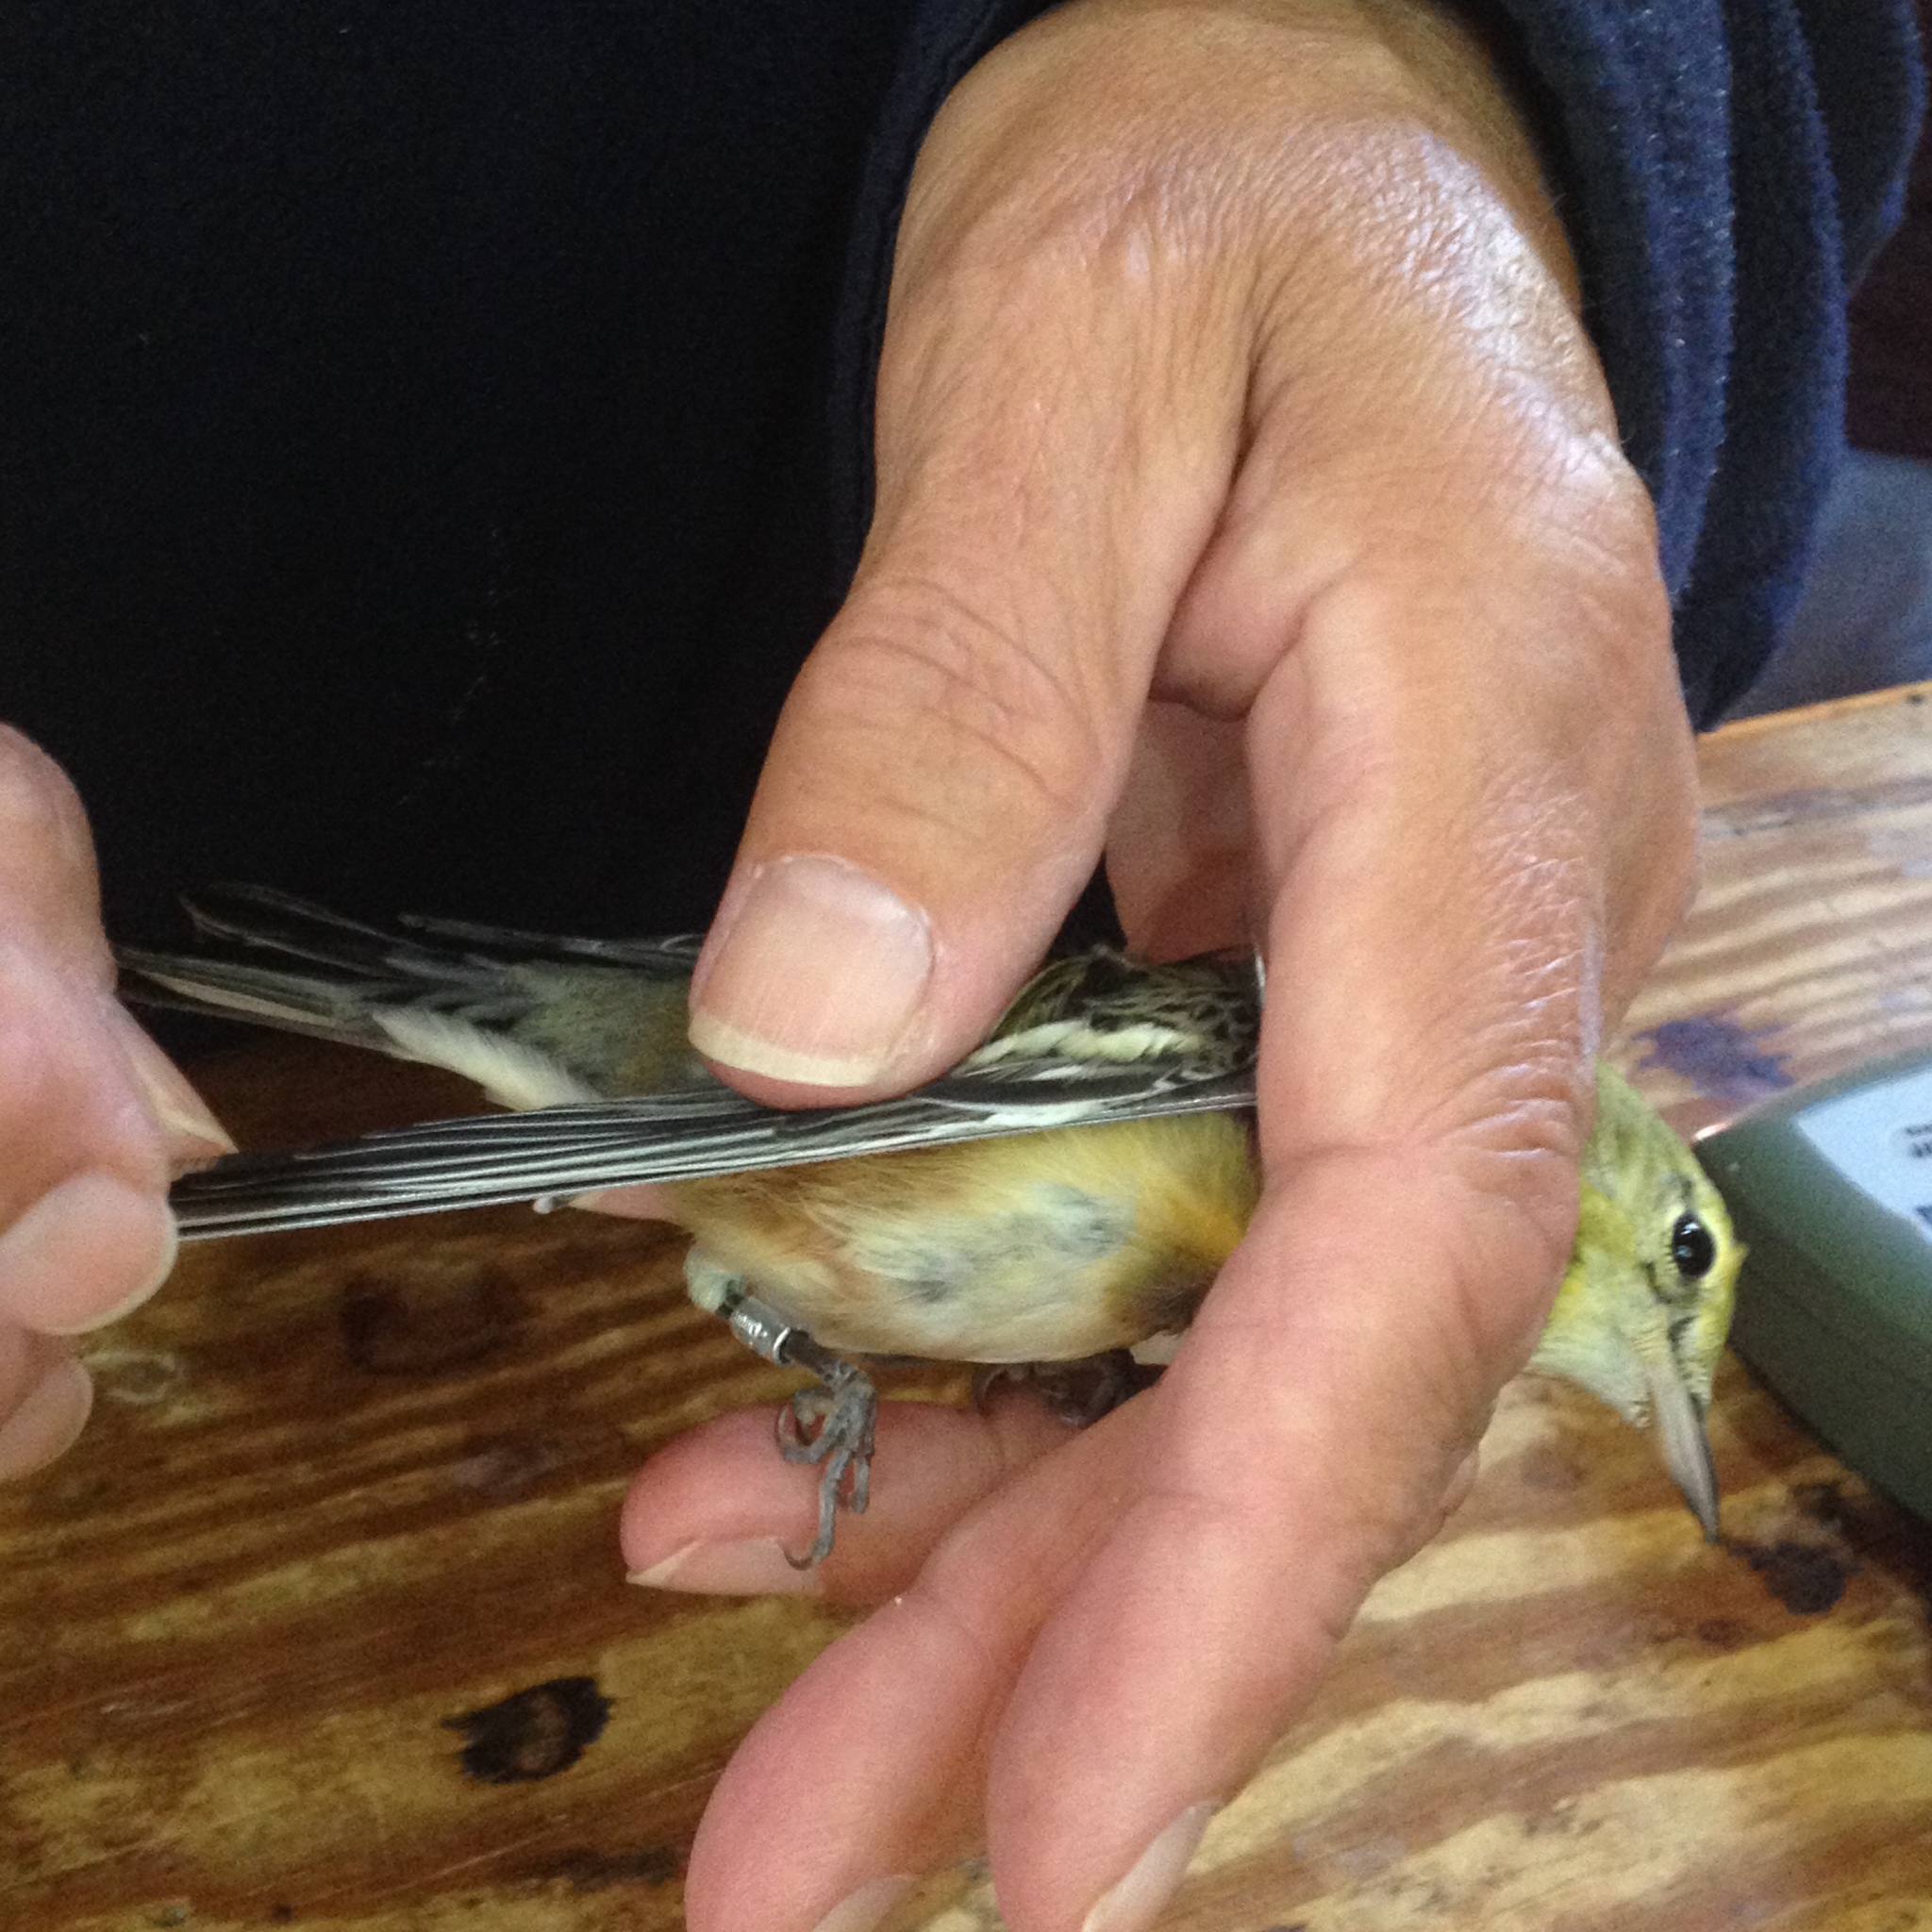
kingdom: Animalia
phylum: Chordata
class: Aves
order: Passeriformes
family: Parulidae
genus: Setophaga
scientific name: Setophaga castanea
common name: Bay-breasted warbler
